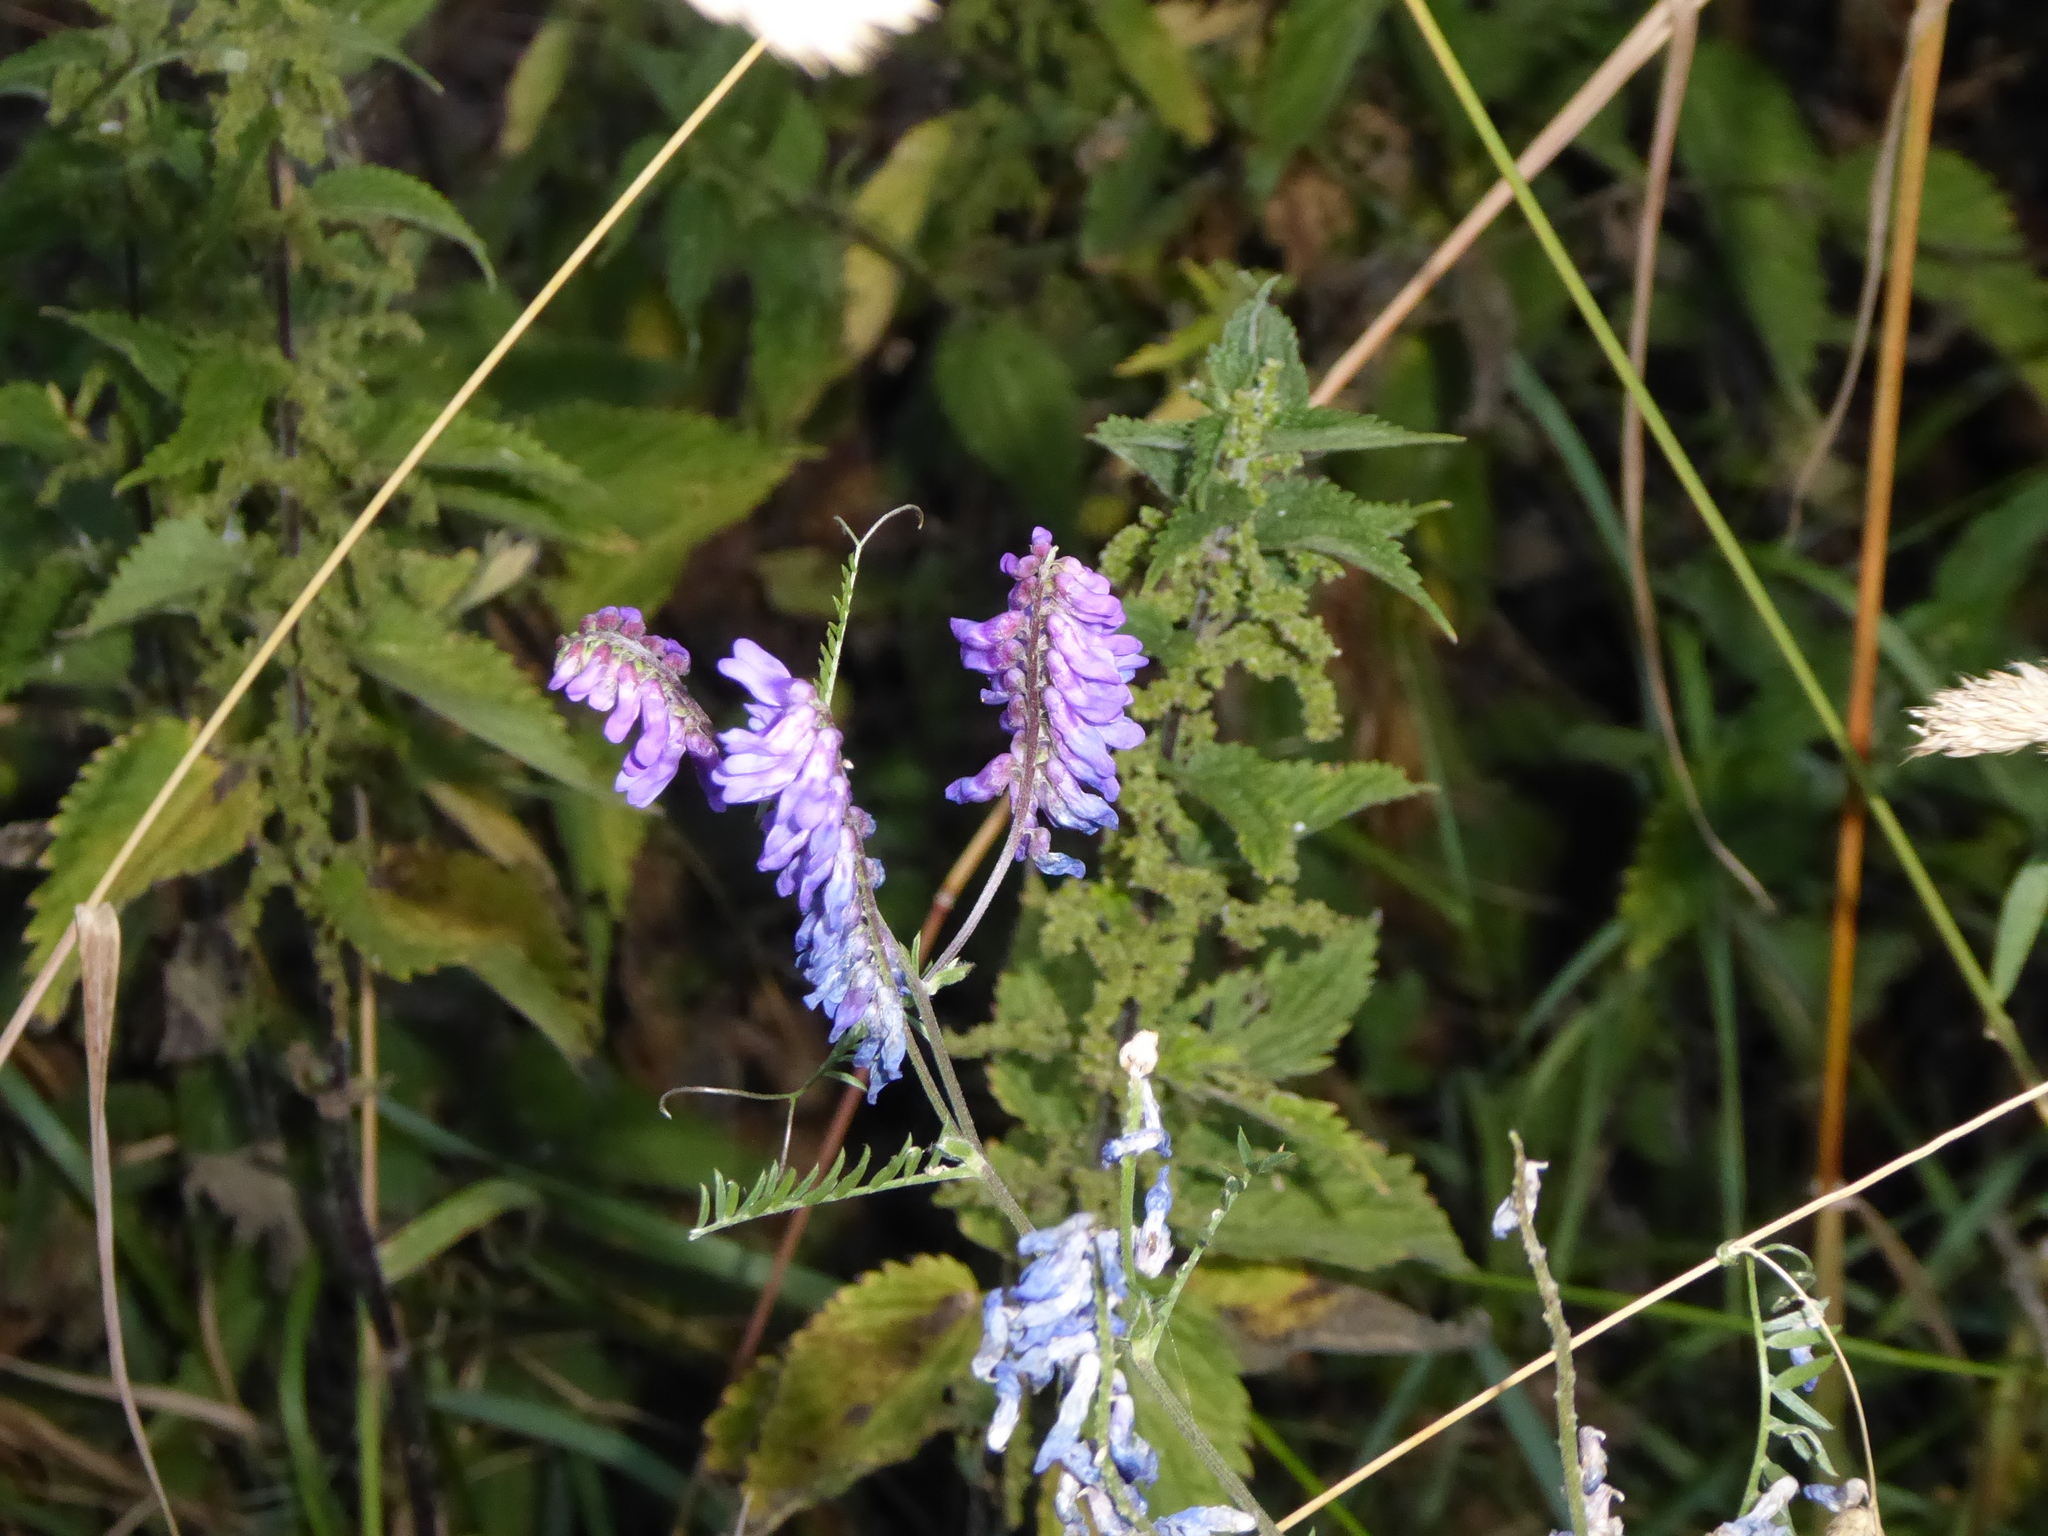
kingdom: Plantae
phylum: Tracheophyta
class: Magnoliopsida
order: Fabales
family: Fabaceae
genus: Vicia
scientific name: Vicia cracca
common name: Bird vetch
